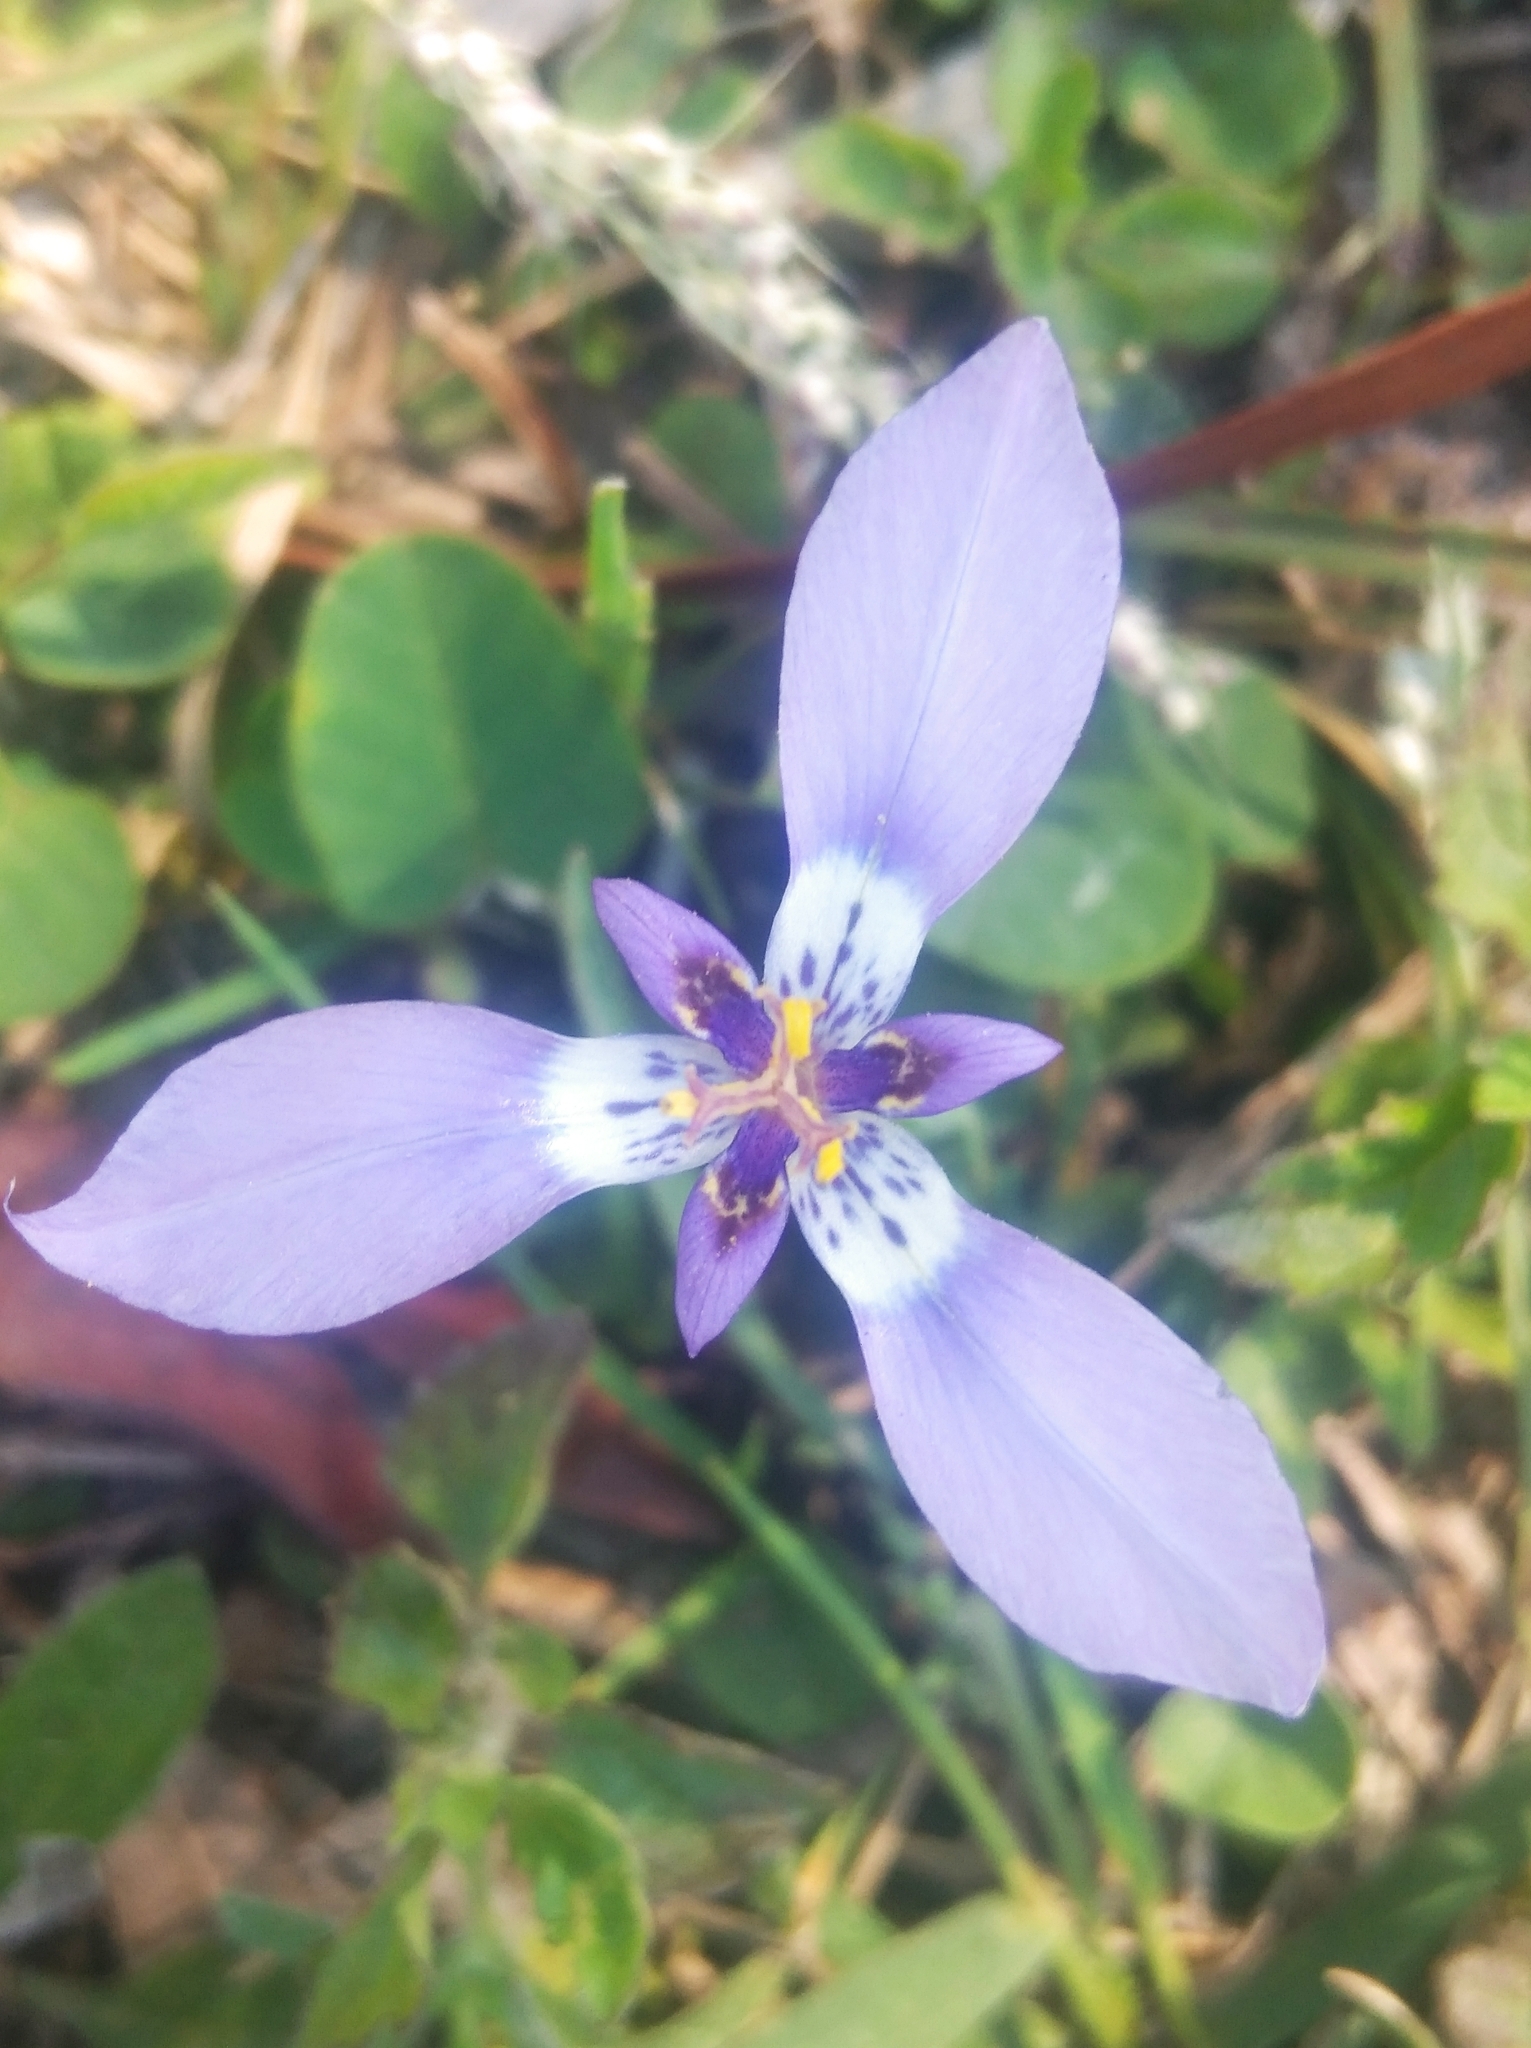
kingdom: Plantae
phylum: Tracheophyta
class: Liliopsida
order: Asparagales
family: Iridaceae
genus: Herbertia
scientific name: Herbertia lahue
